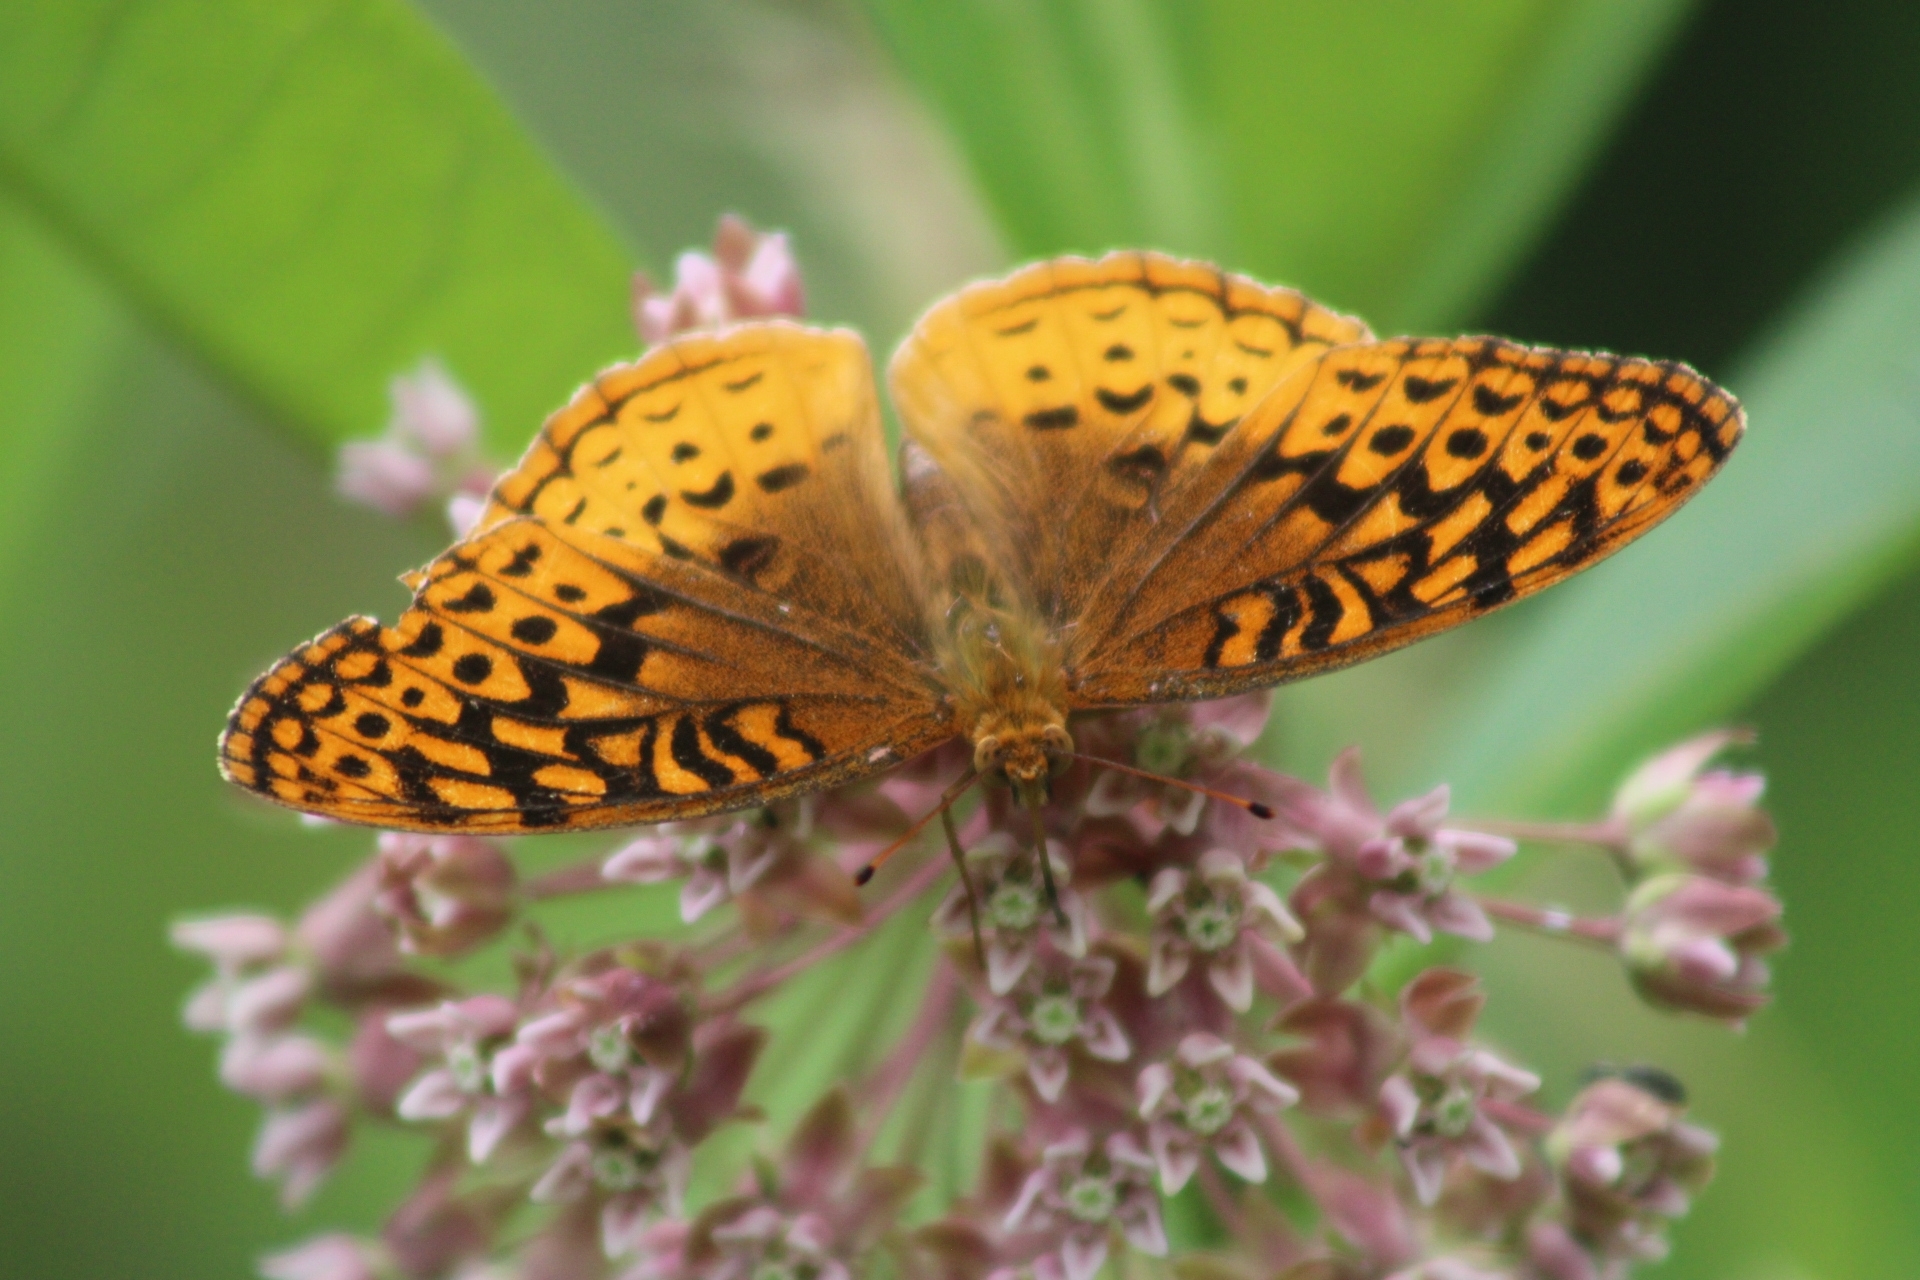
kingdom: Animalia
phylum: Arthropoda
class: Insecta
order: Lepidoptera
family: Nymphalidae
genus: Speyeria
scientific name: Speyeria cybele
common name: Great spangled fritillary
